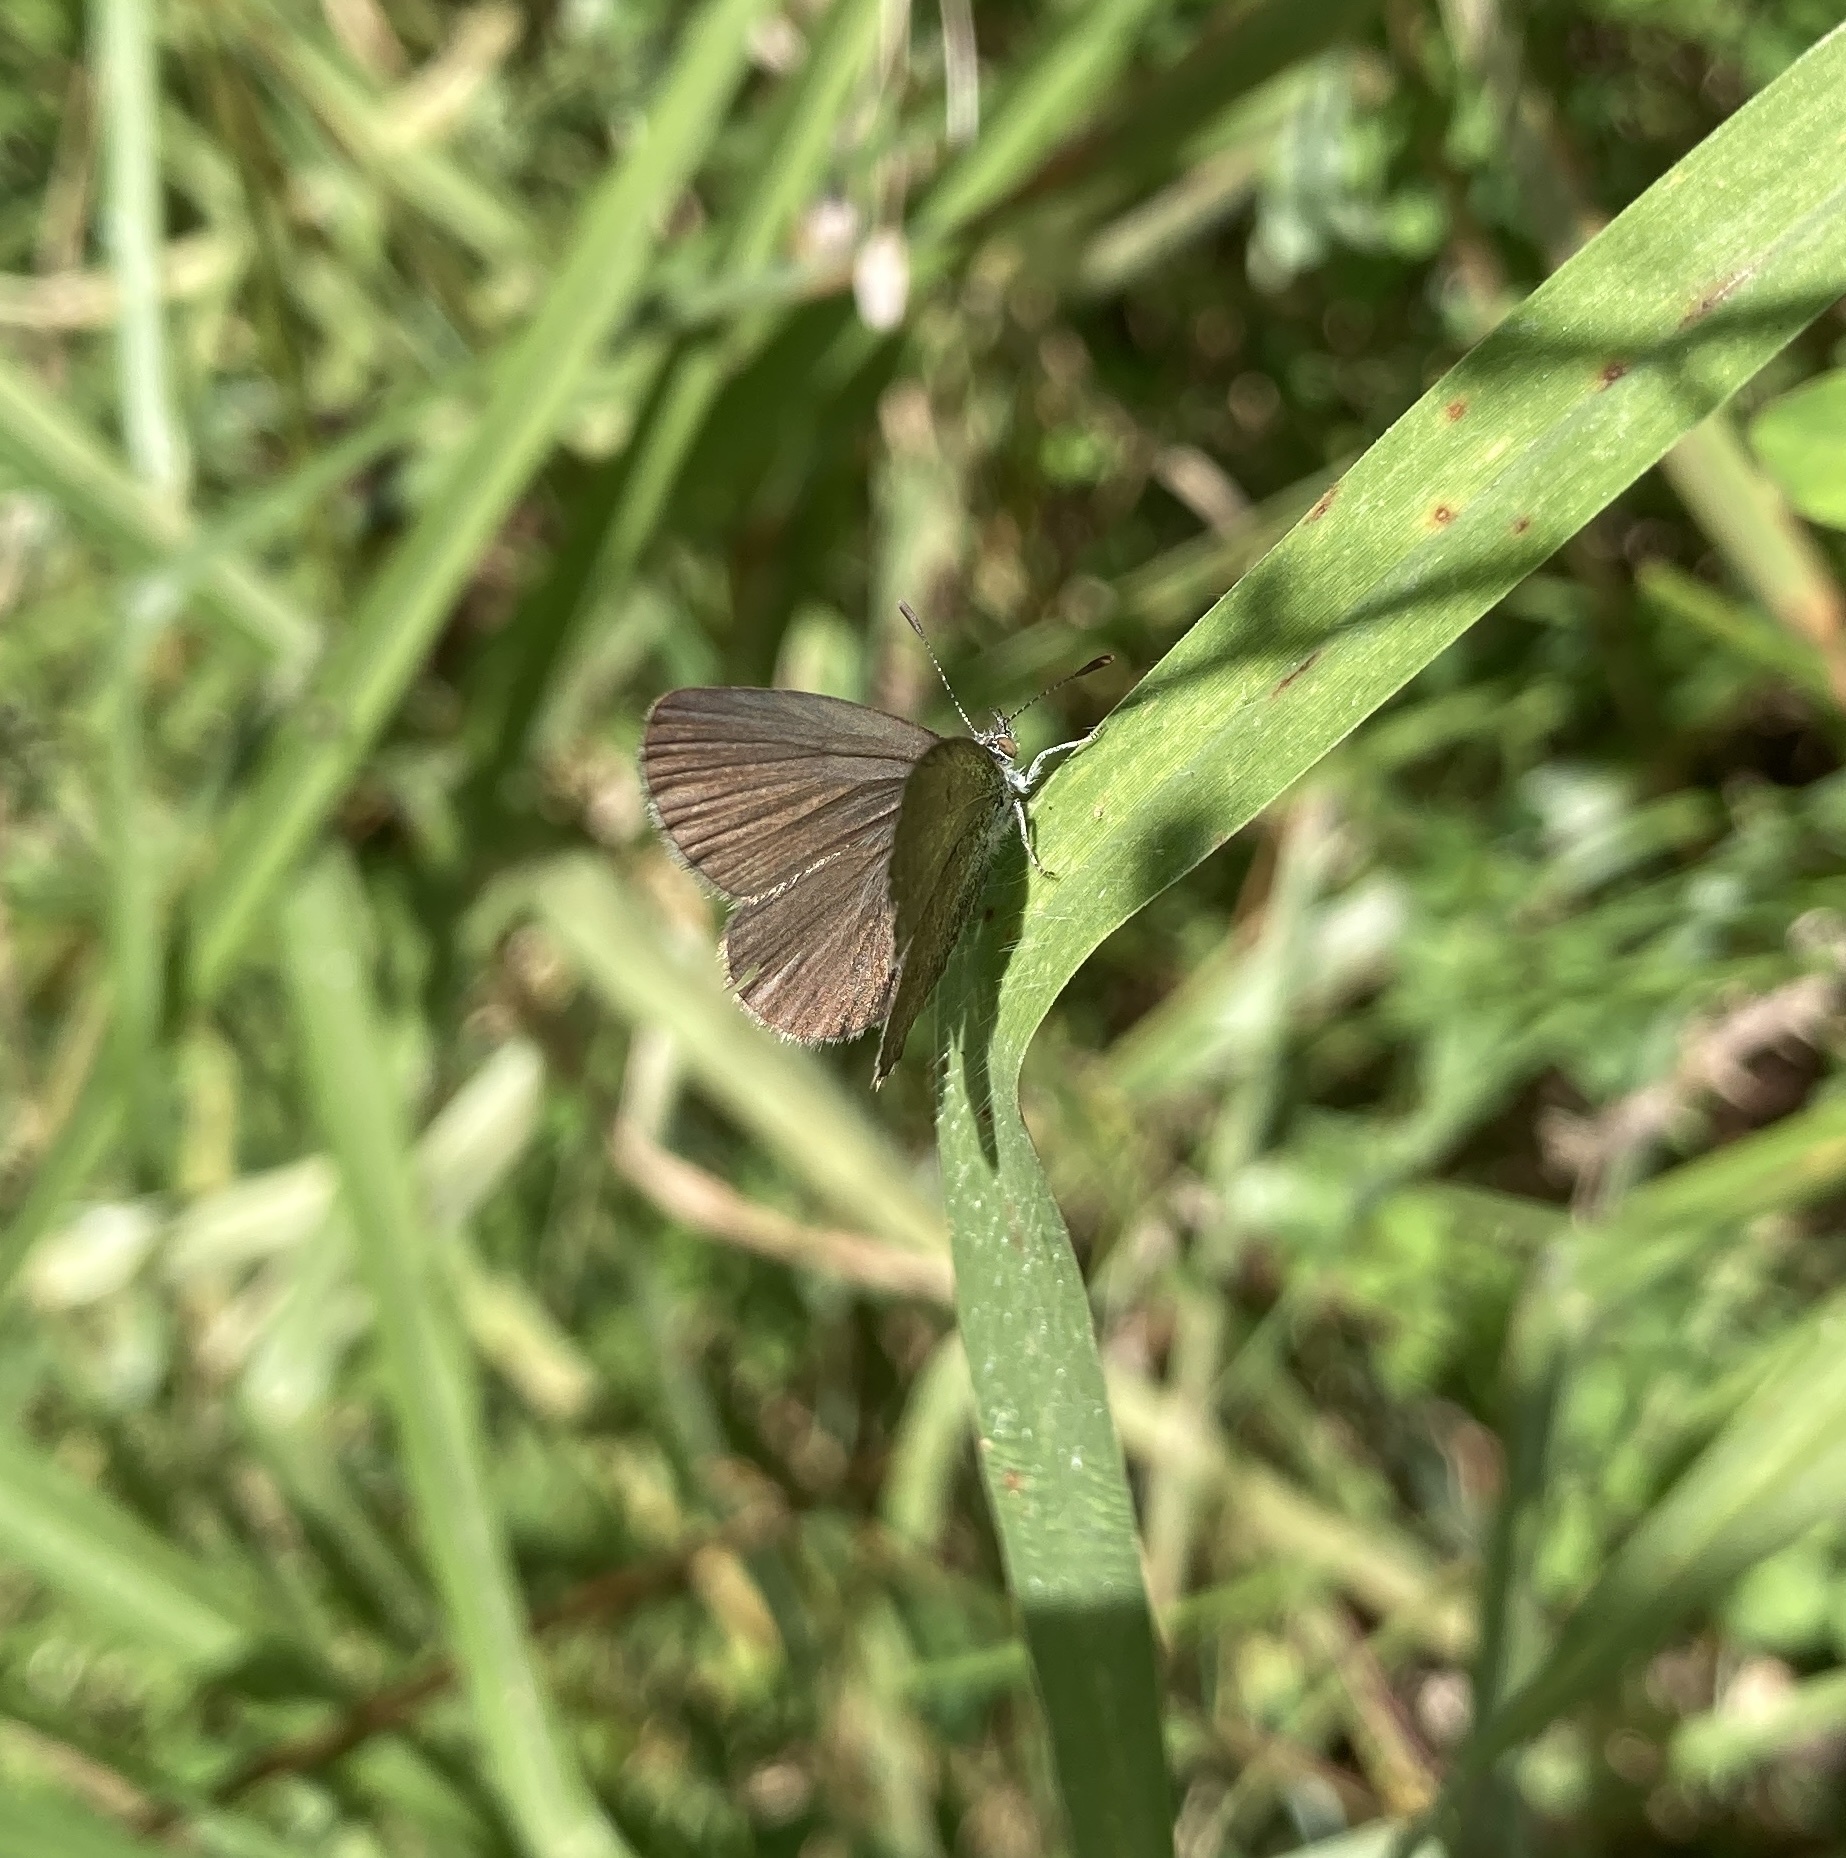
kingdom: Animalia
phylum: Arthropoda
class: Insecta
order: Lepidoptera
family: Lycaenidae
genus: Zizina
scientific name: Zizina otis
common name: Lesser grass blue
